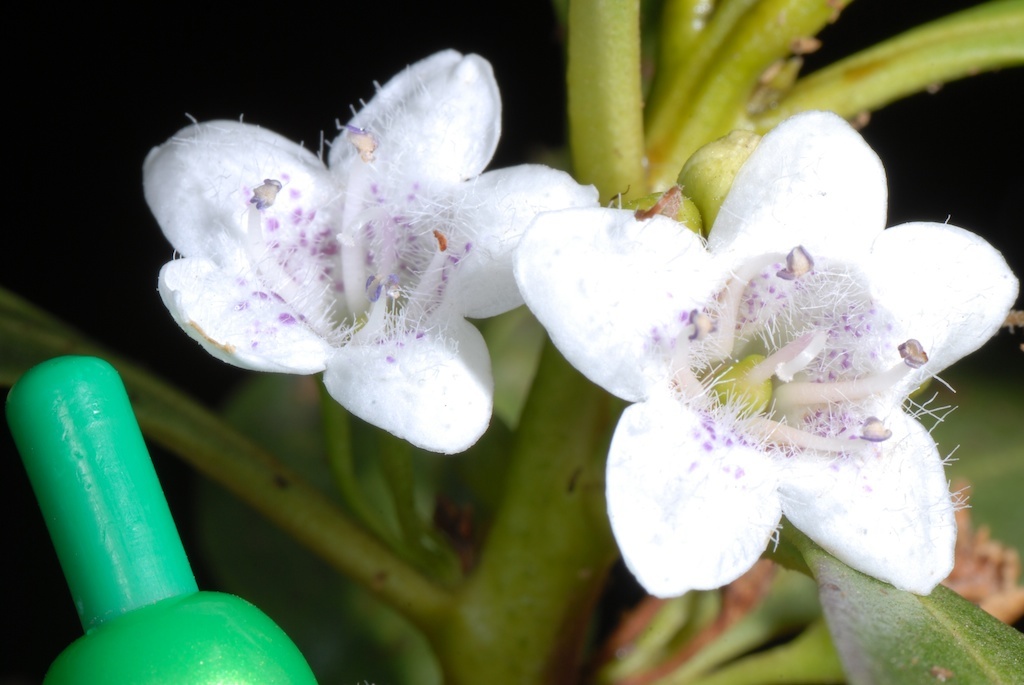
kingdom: Plantae
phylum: Tracheophyta
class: Magnoliopsida
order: Lamiales
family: Scrophulariaceae
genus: Myoporum
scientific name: Myoporum laetum
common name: Ngaio tree
